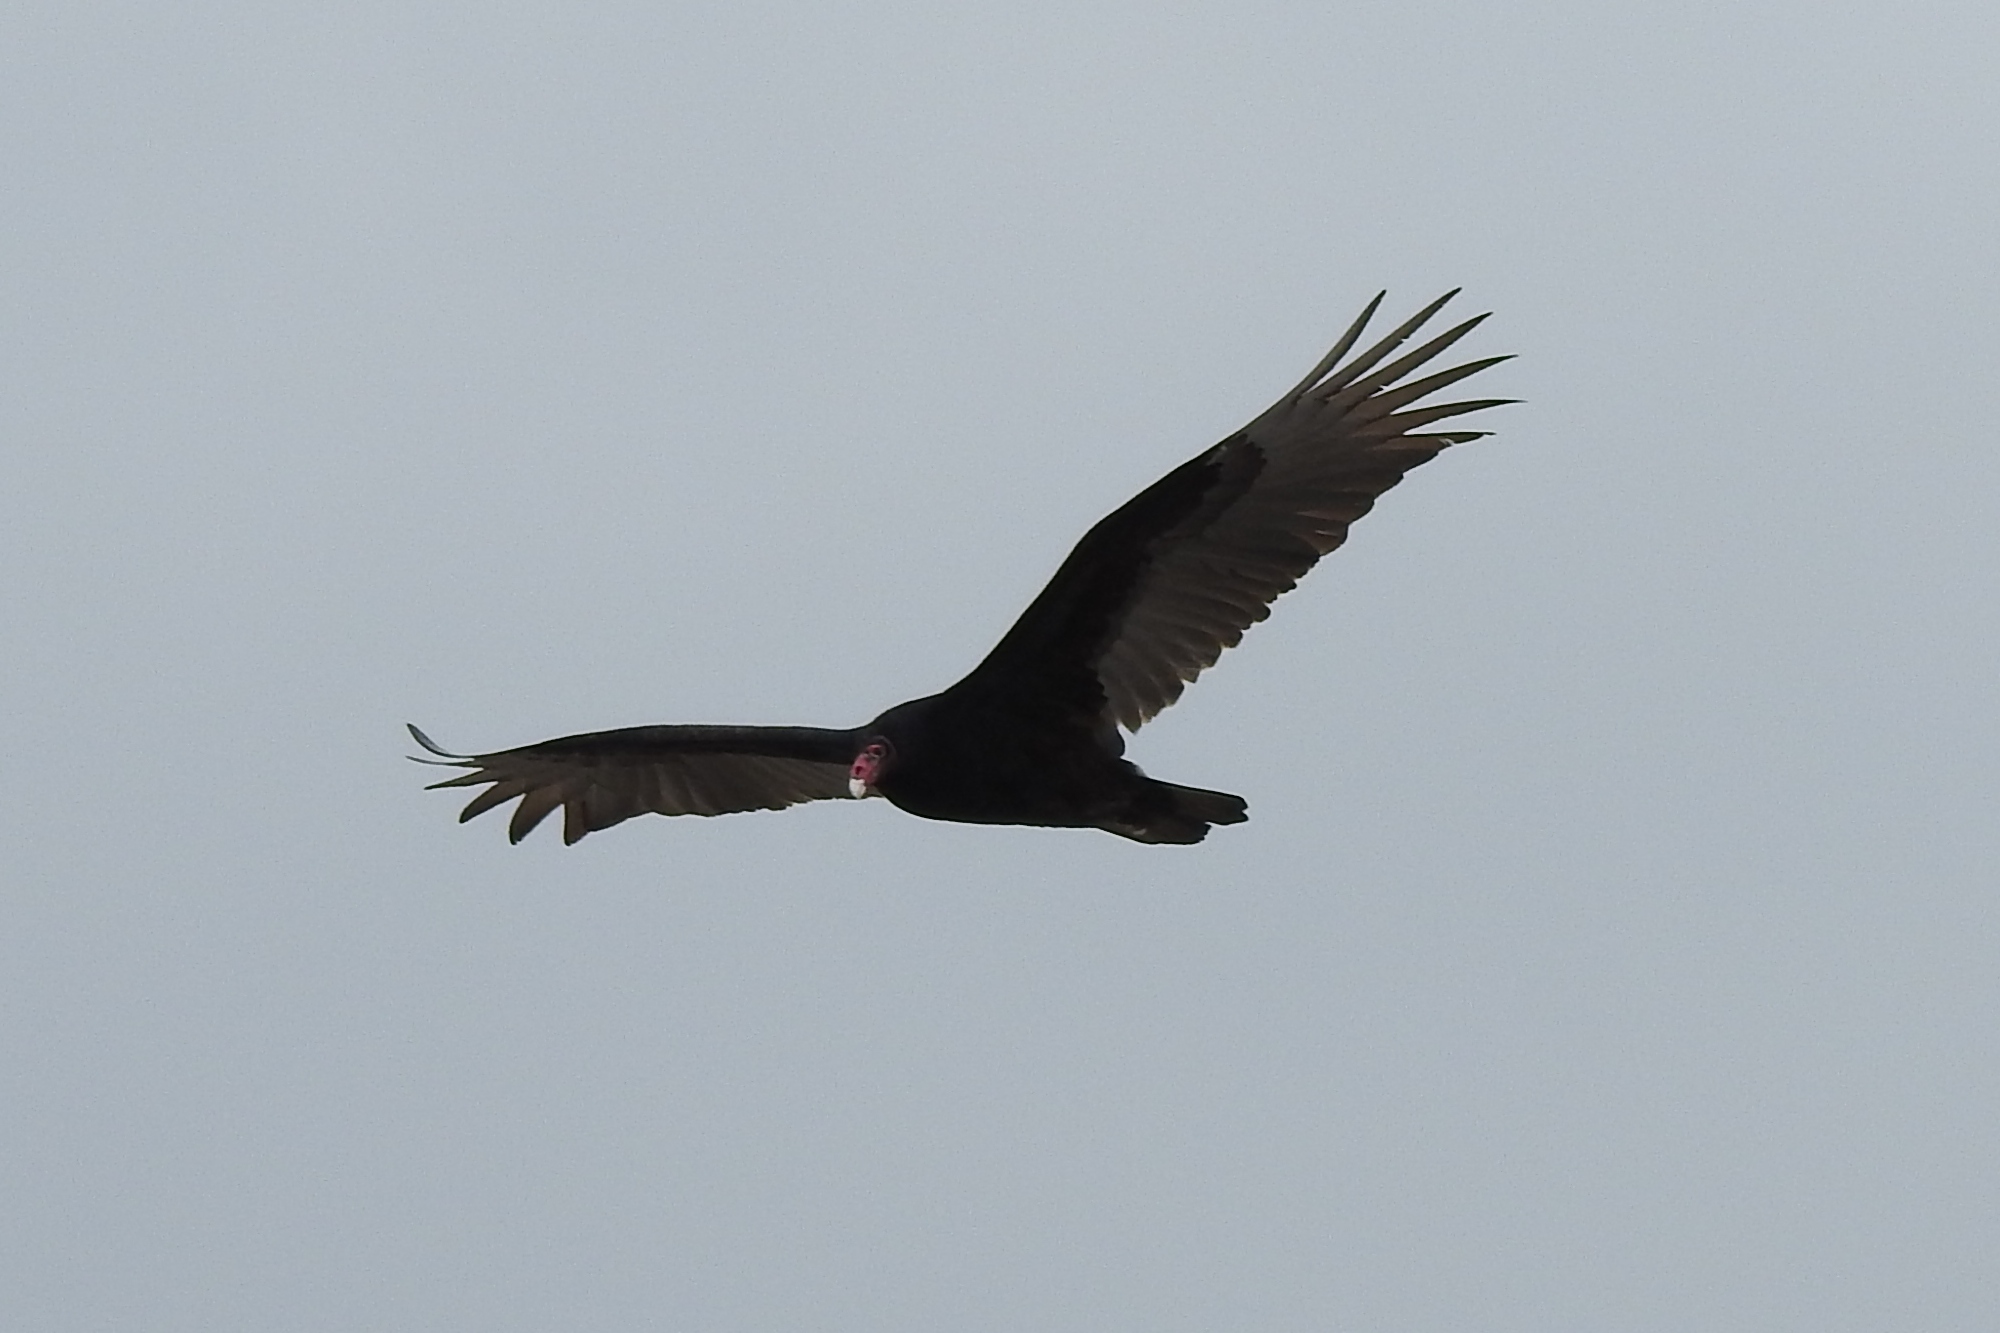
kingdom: Animalia
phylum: Chordata
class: Aves
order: Accipitriformes
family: Cathartidae
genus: Cathartes
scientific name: Cathartes aura
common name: Turkey vulture
